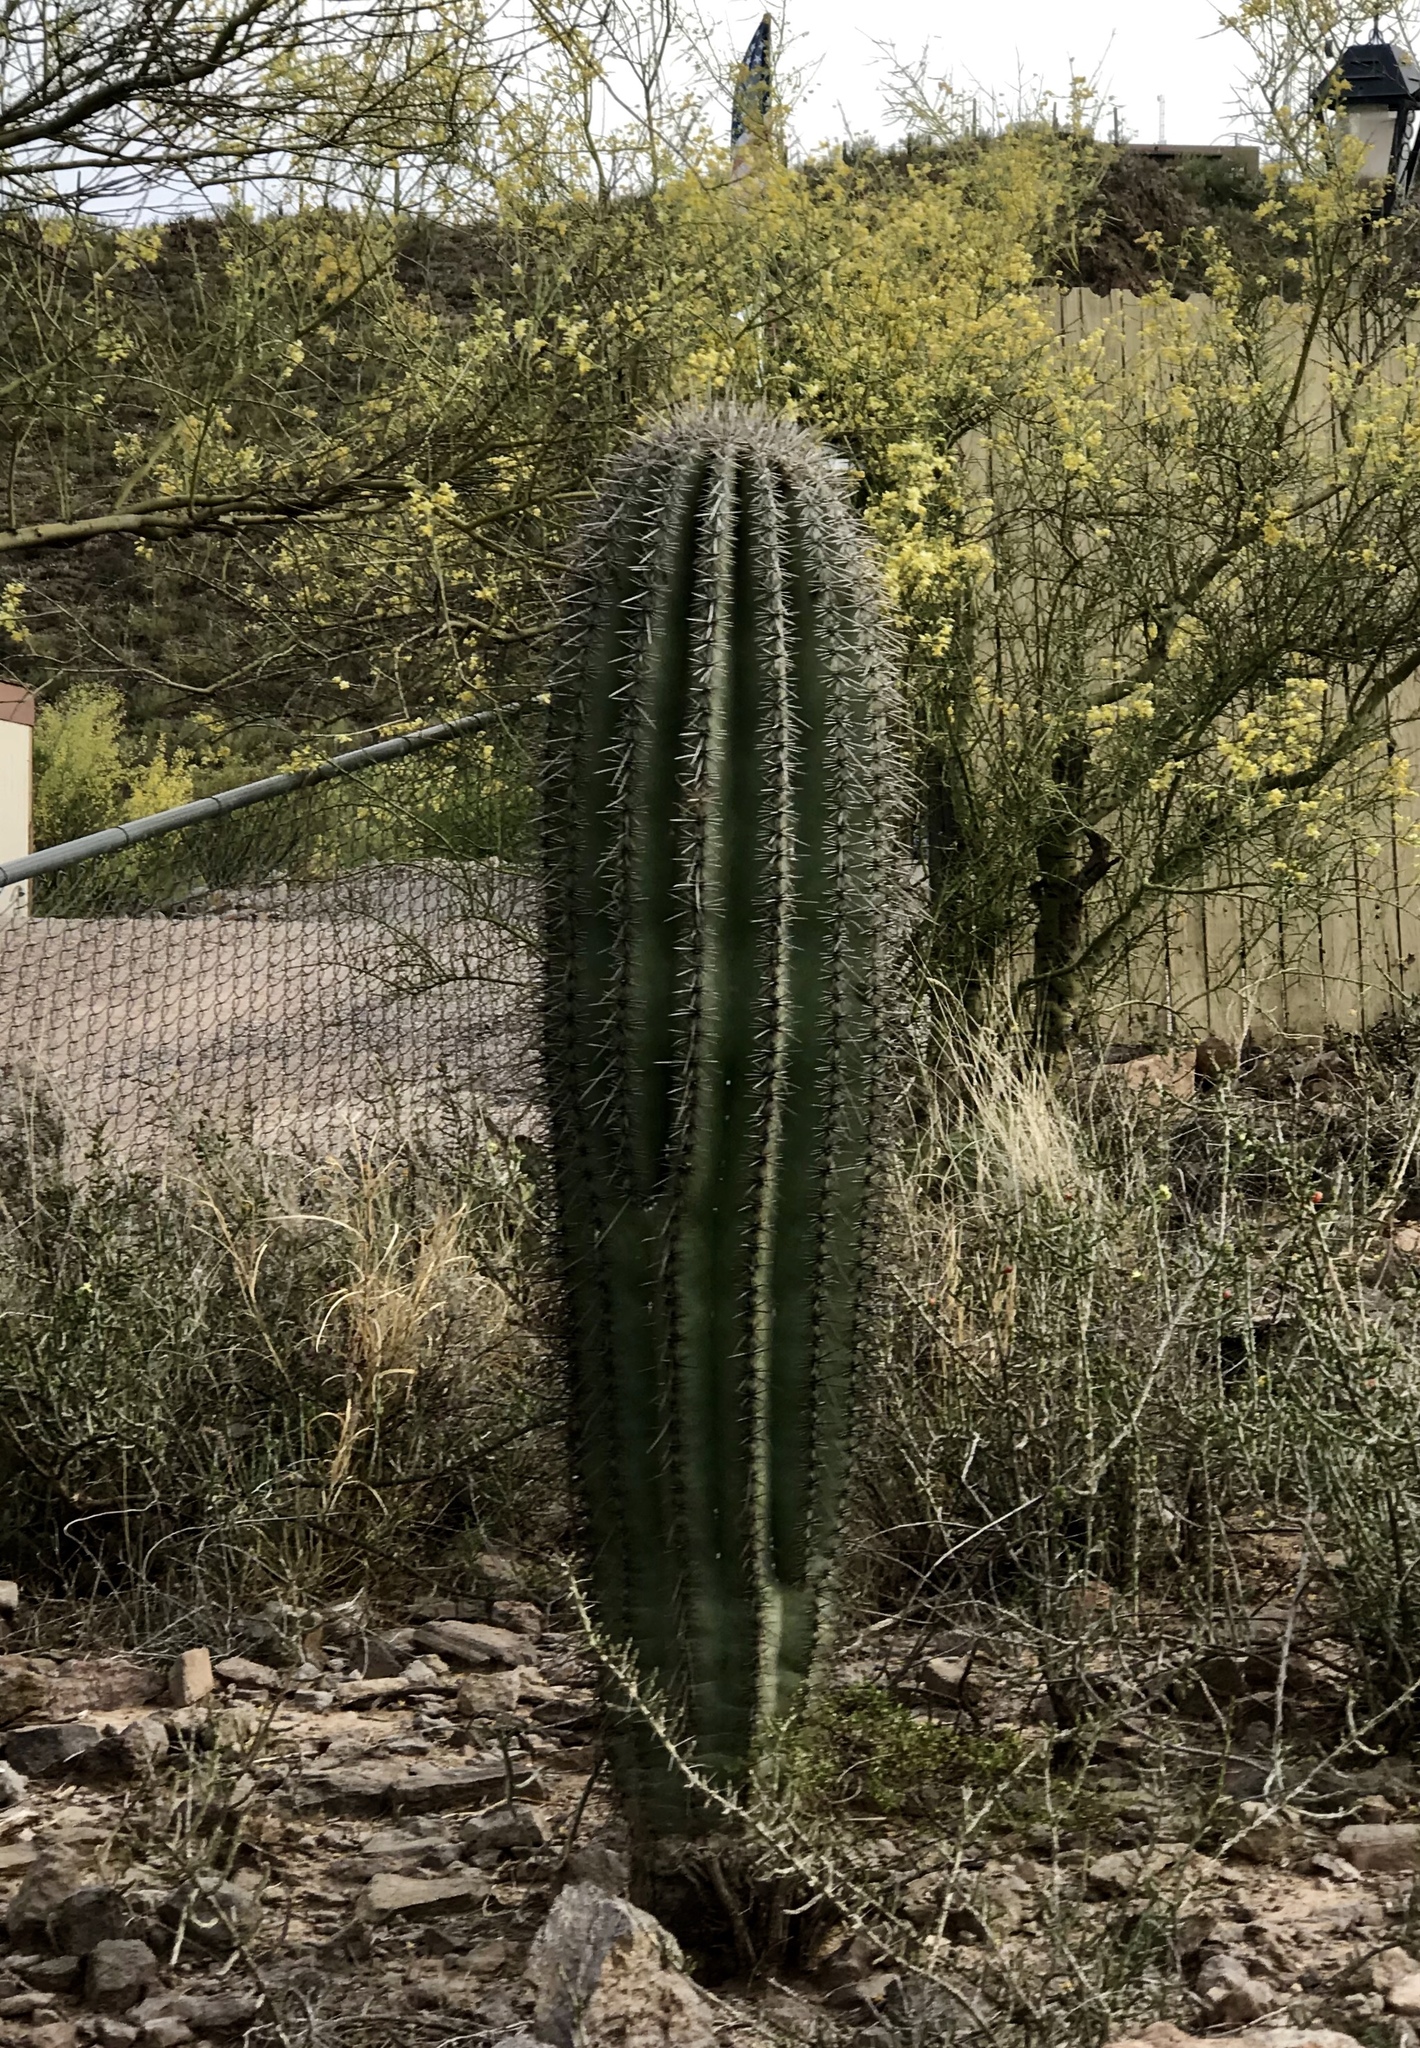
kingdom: Plantae
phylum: Tracheophyta
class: Magnoliopsida
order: Caryophyllales
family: Cactaceae
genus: Carnegiea
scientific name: Carnegiea gigantea
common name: Saguaro
